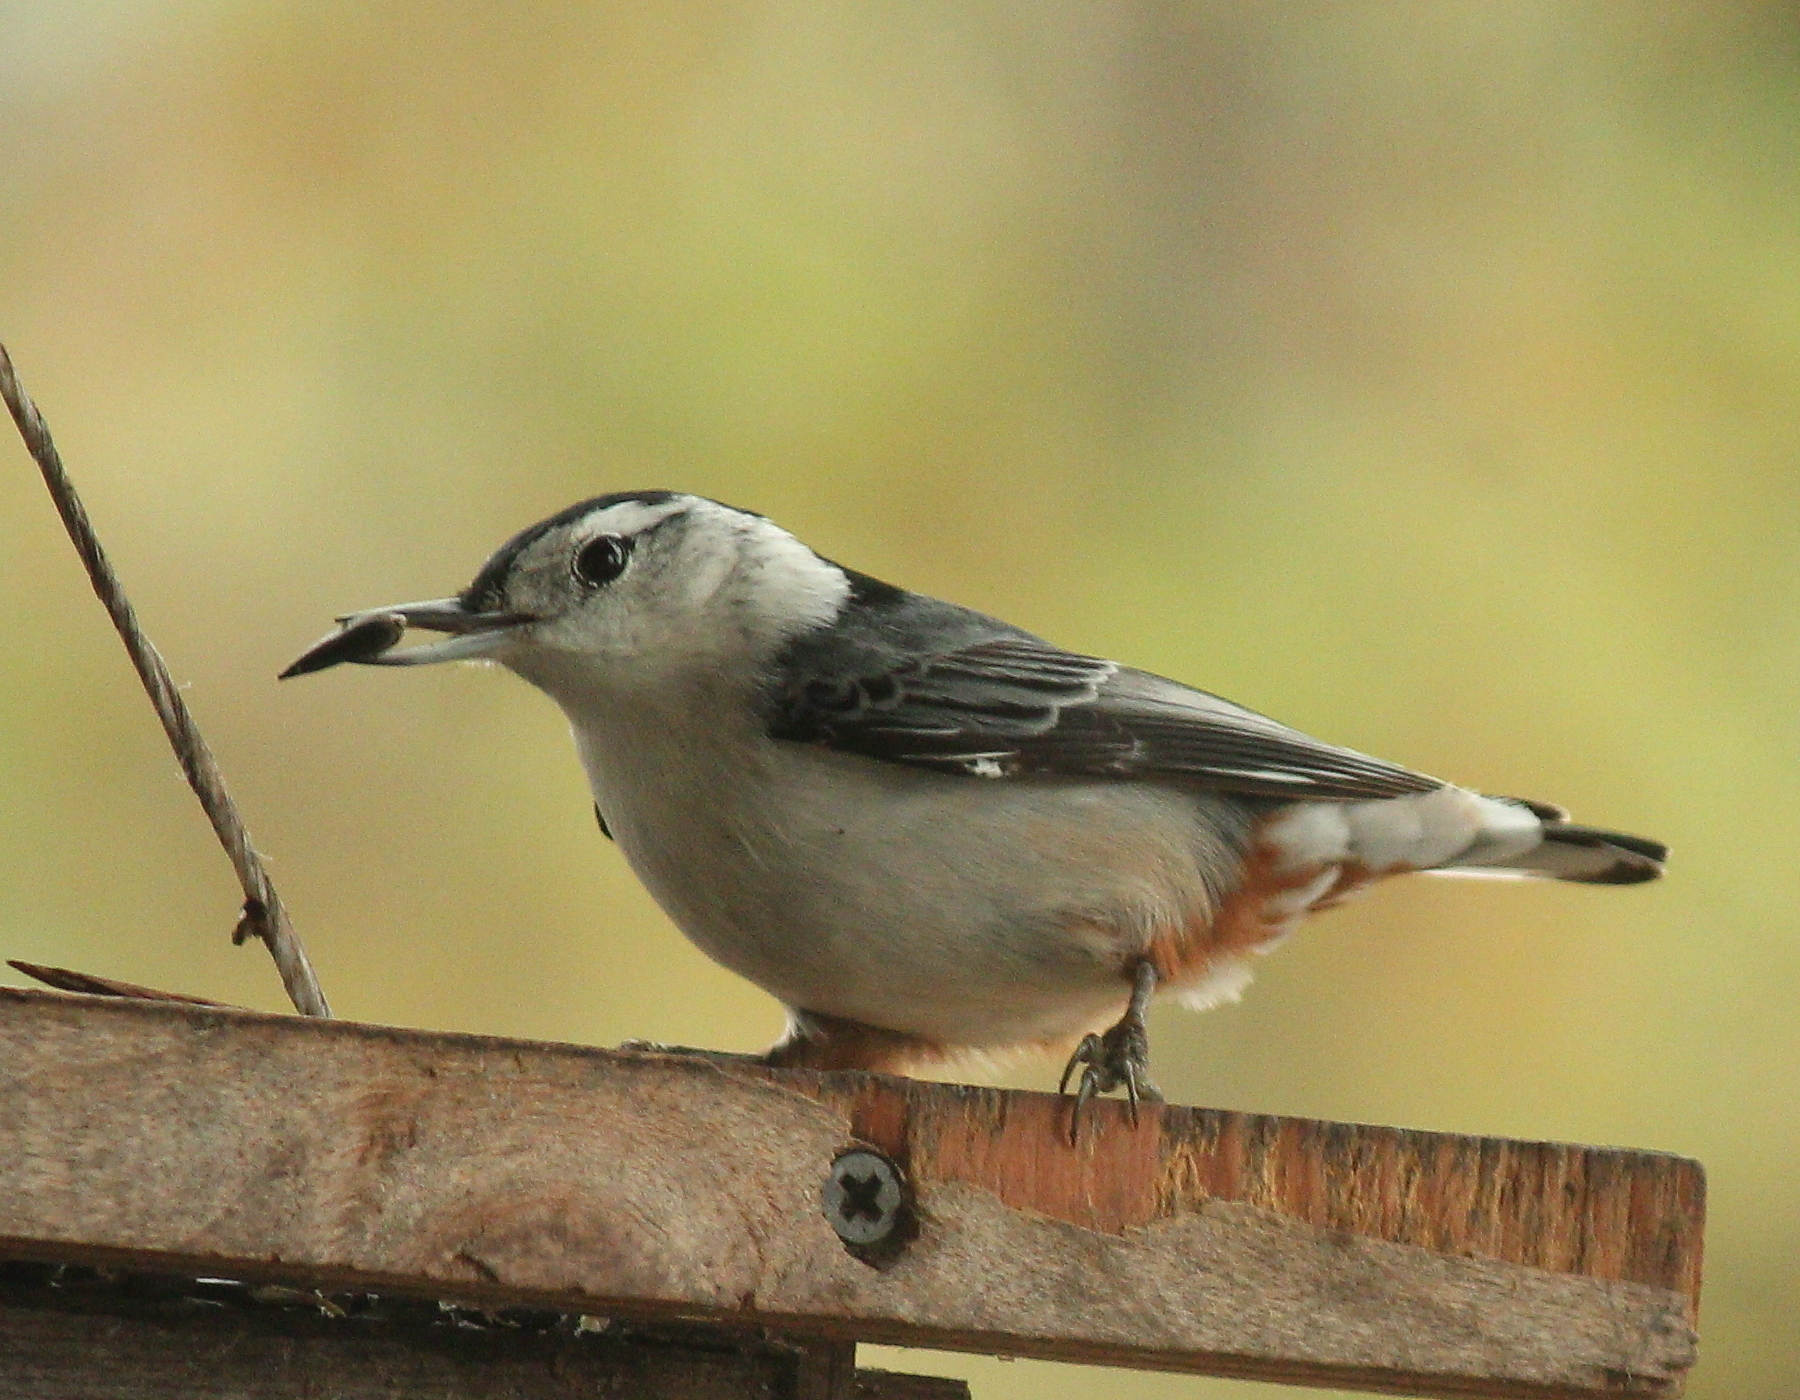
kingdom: Animalia
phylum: Chordata
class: Aves
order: Passeriformes
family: Sittidae
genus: Sitta
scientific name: Sitta carolinensis
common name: White-breasted nuthatch
